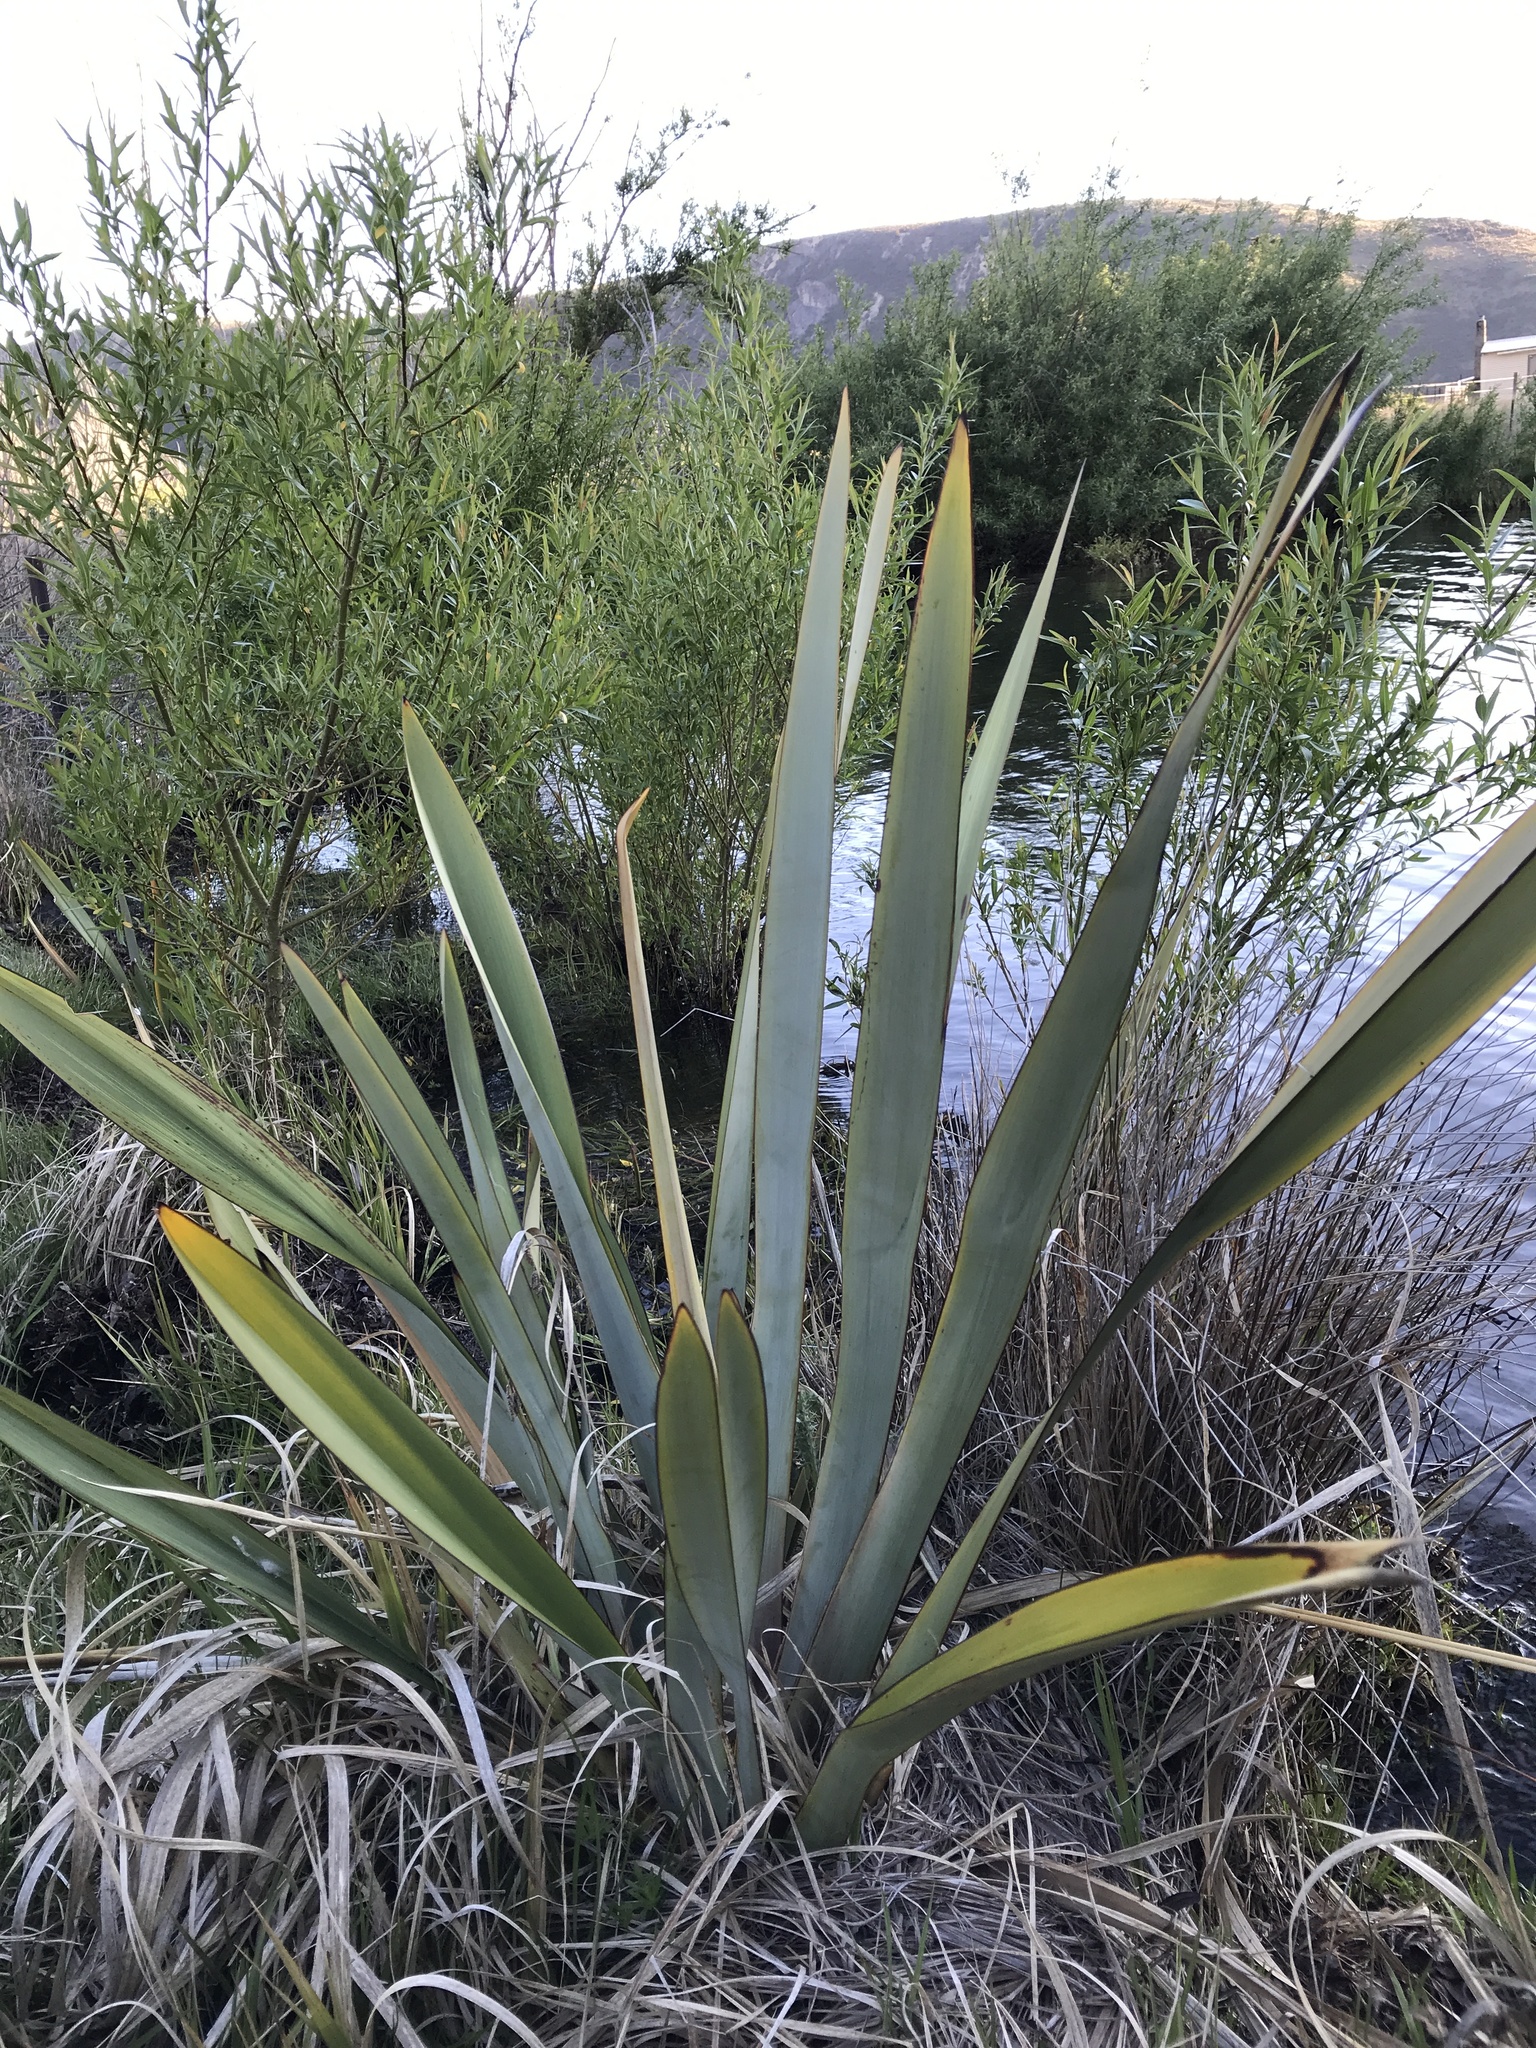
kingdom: Plantae
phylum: Tracheophyta
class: Liliopsida
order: Asparagales
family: Asphodelaceae
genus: Phormium
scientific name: Phormium tenax
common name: New zealand flax
